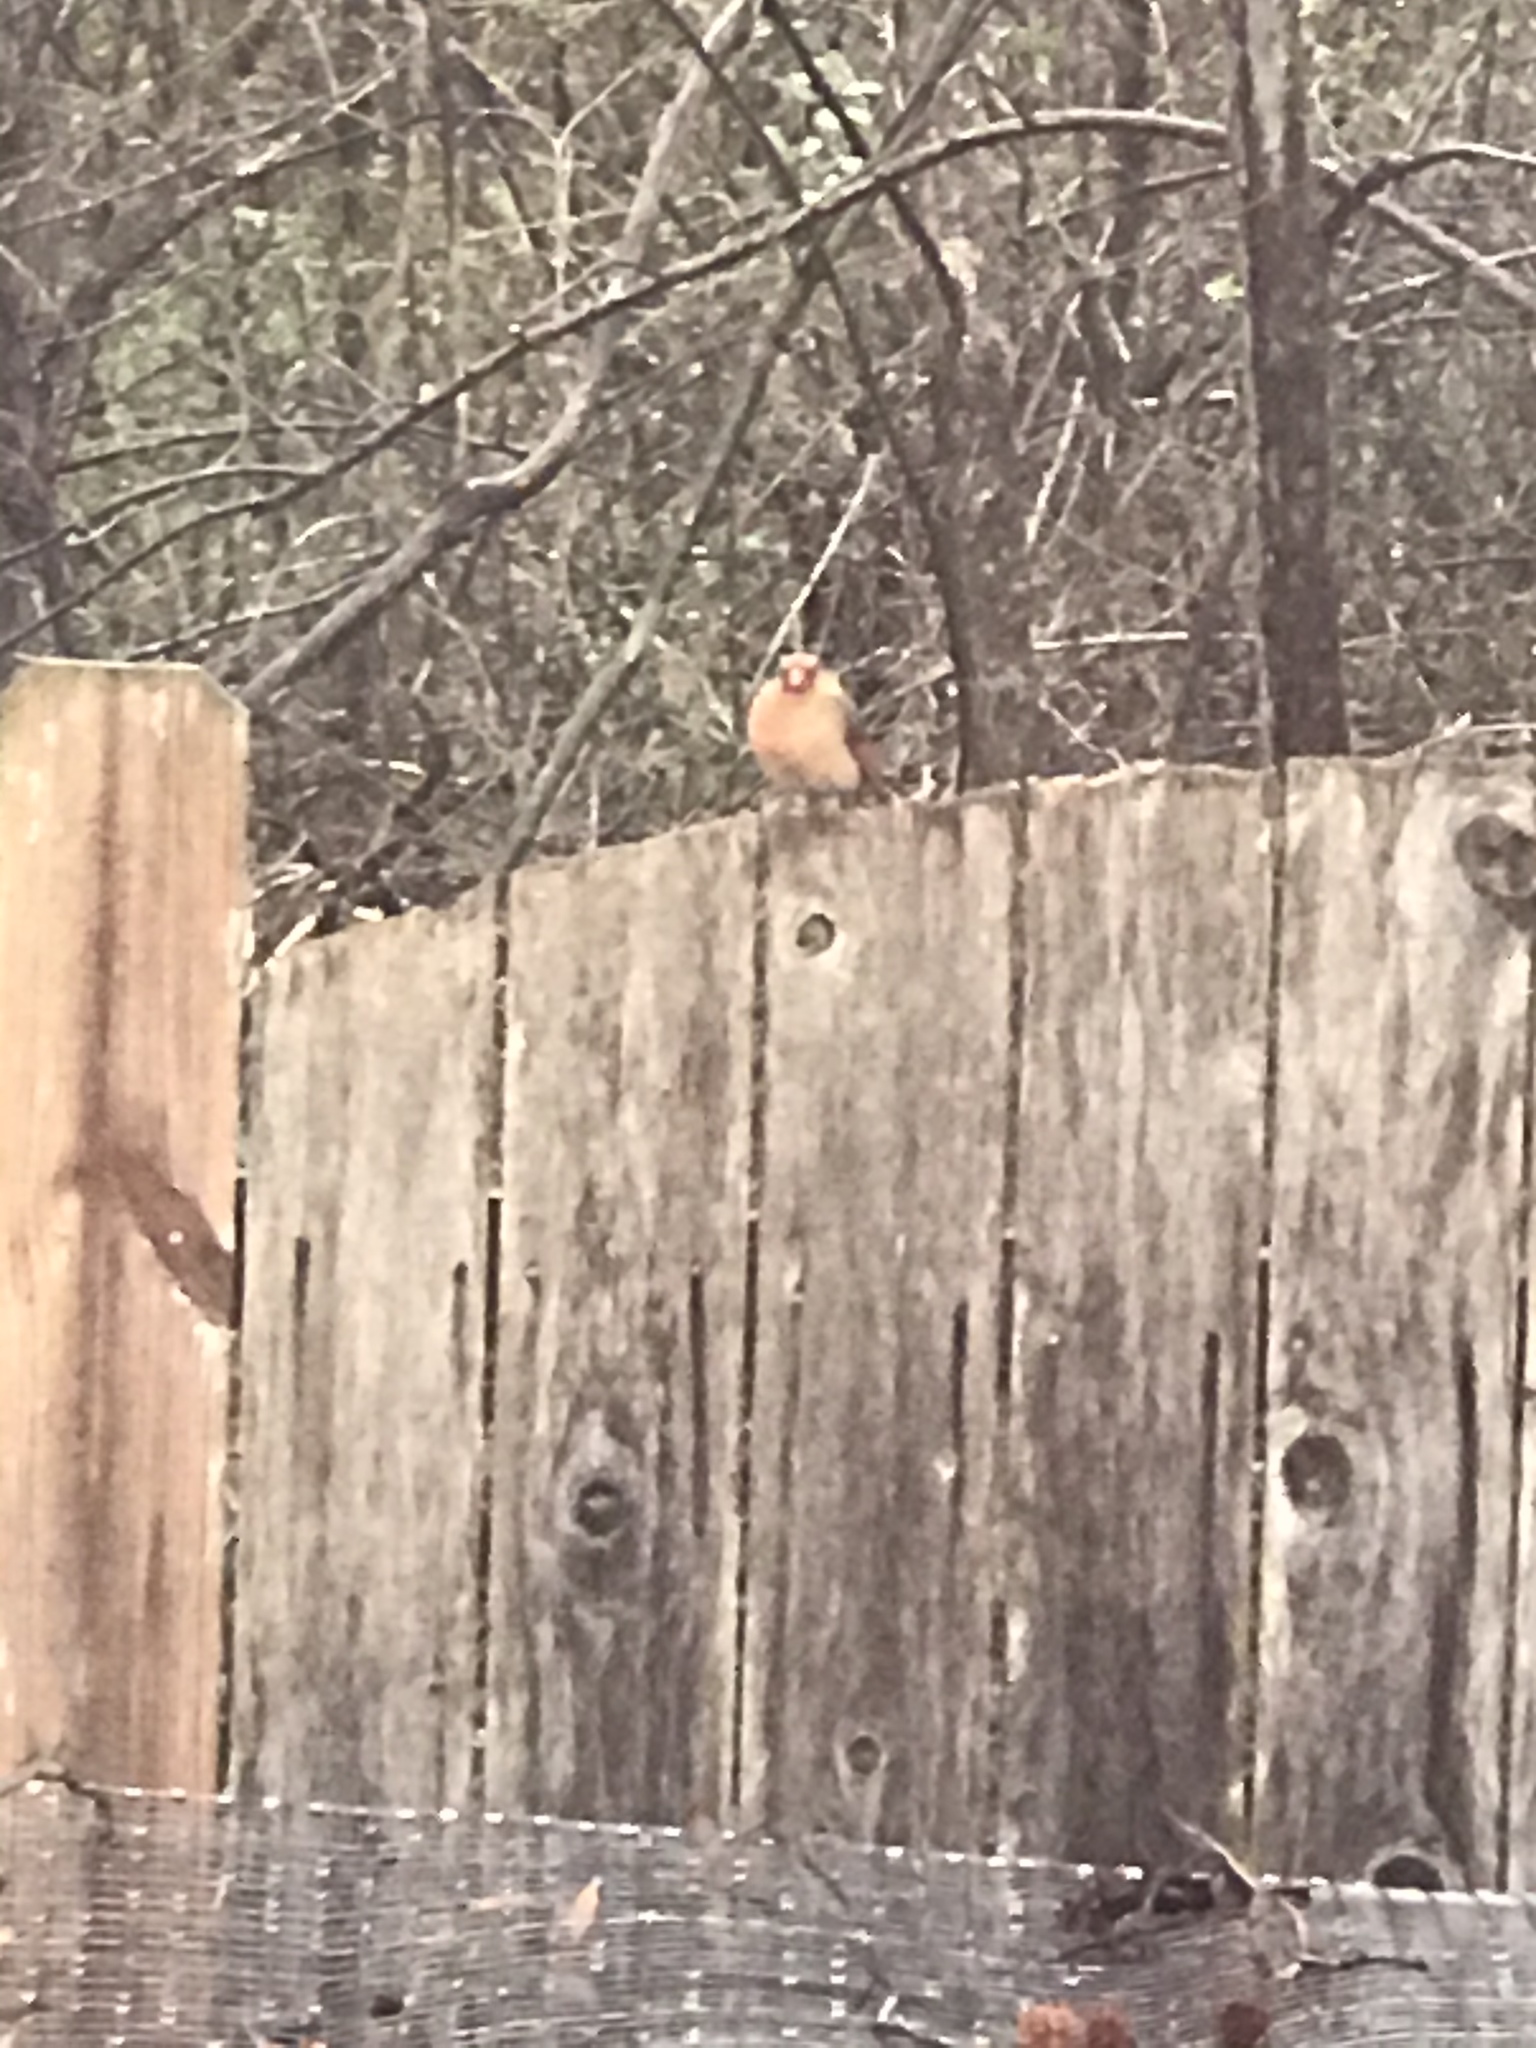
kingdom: Animalia
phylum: Chordata
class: Aves
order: Passeriformes
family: Cardinalidae
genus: Cardinalis
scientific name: Cardinalis cardinalis
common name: Northern cardinal
